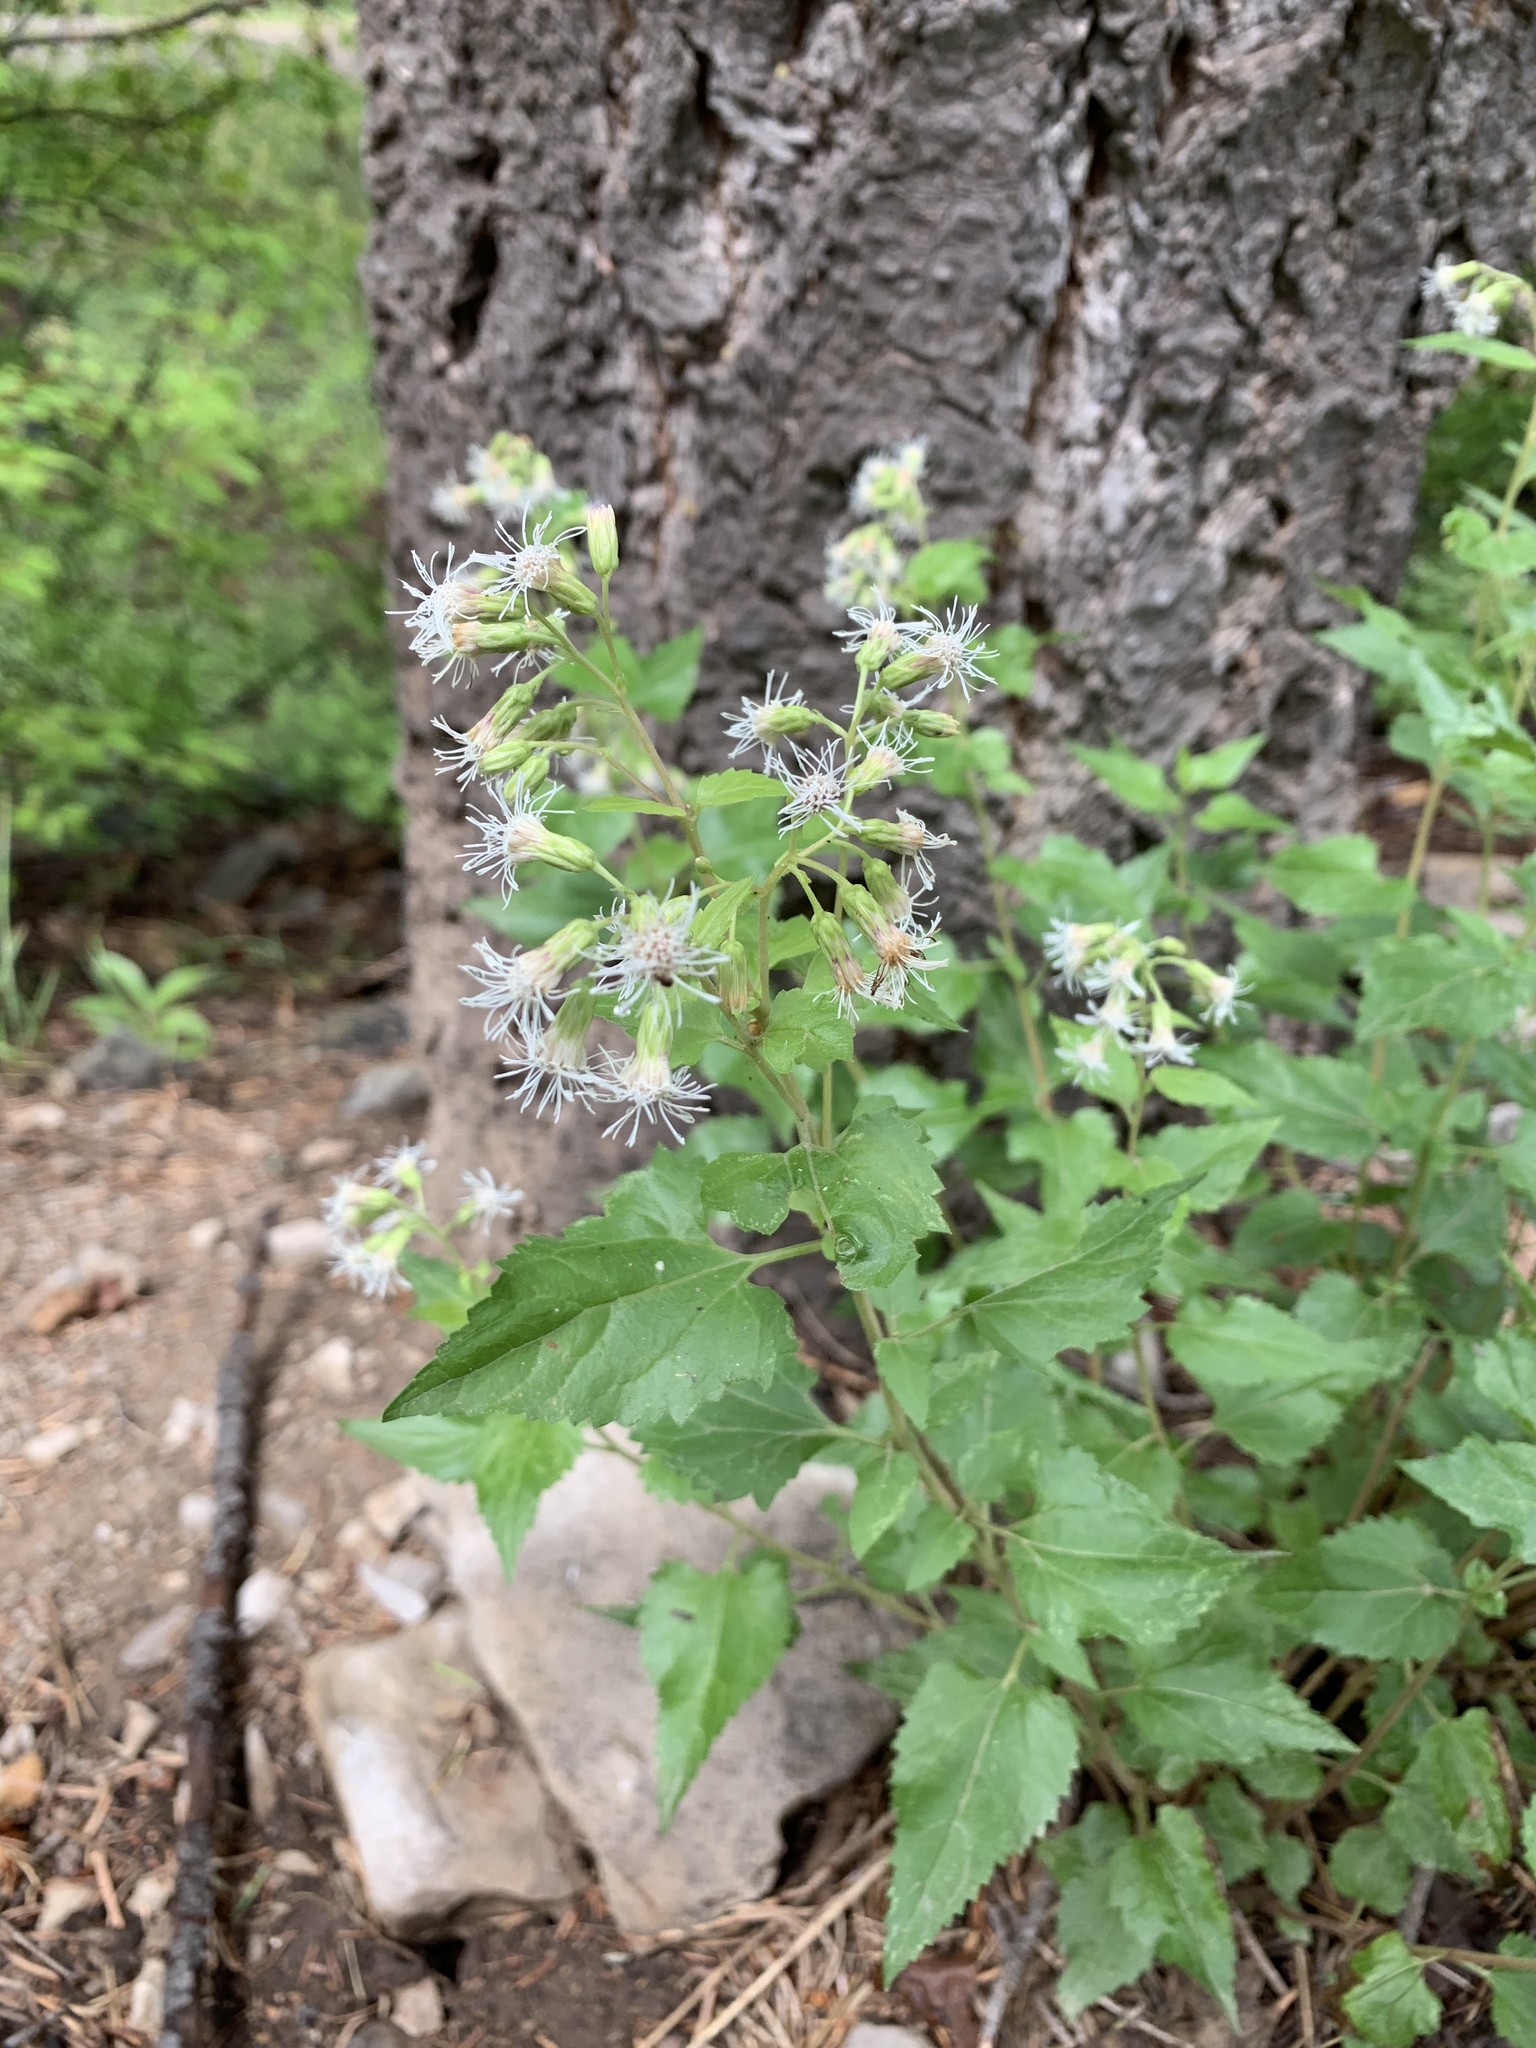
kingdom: Plantae
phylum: Tracheophyta
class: Magnoliopsida
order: Asterales
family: Asteraceae
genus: Brickelliastrum
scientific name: Brickelliastrum fendleri
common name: Fendler's-brickellbush
